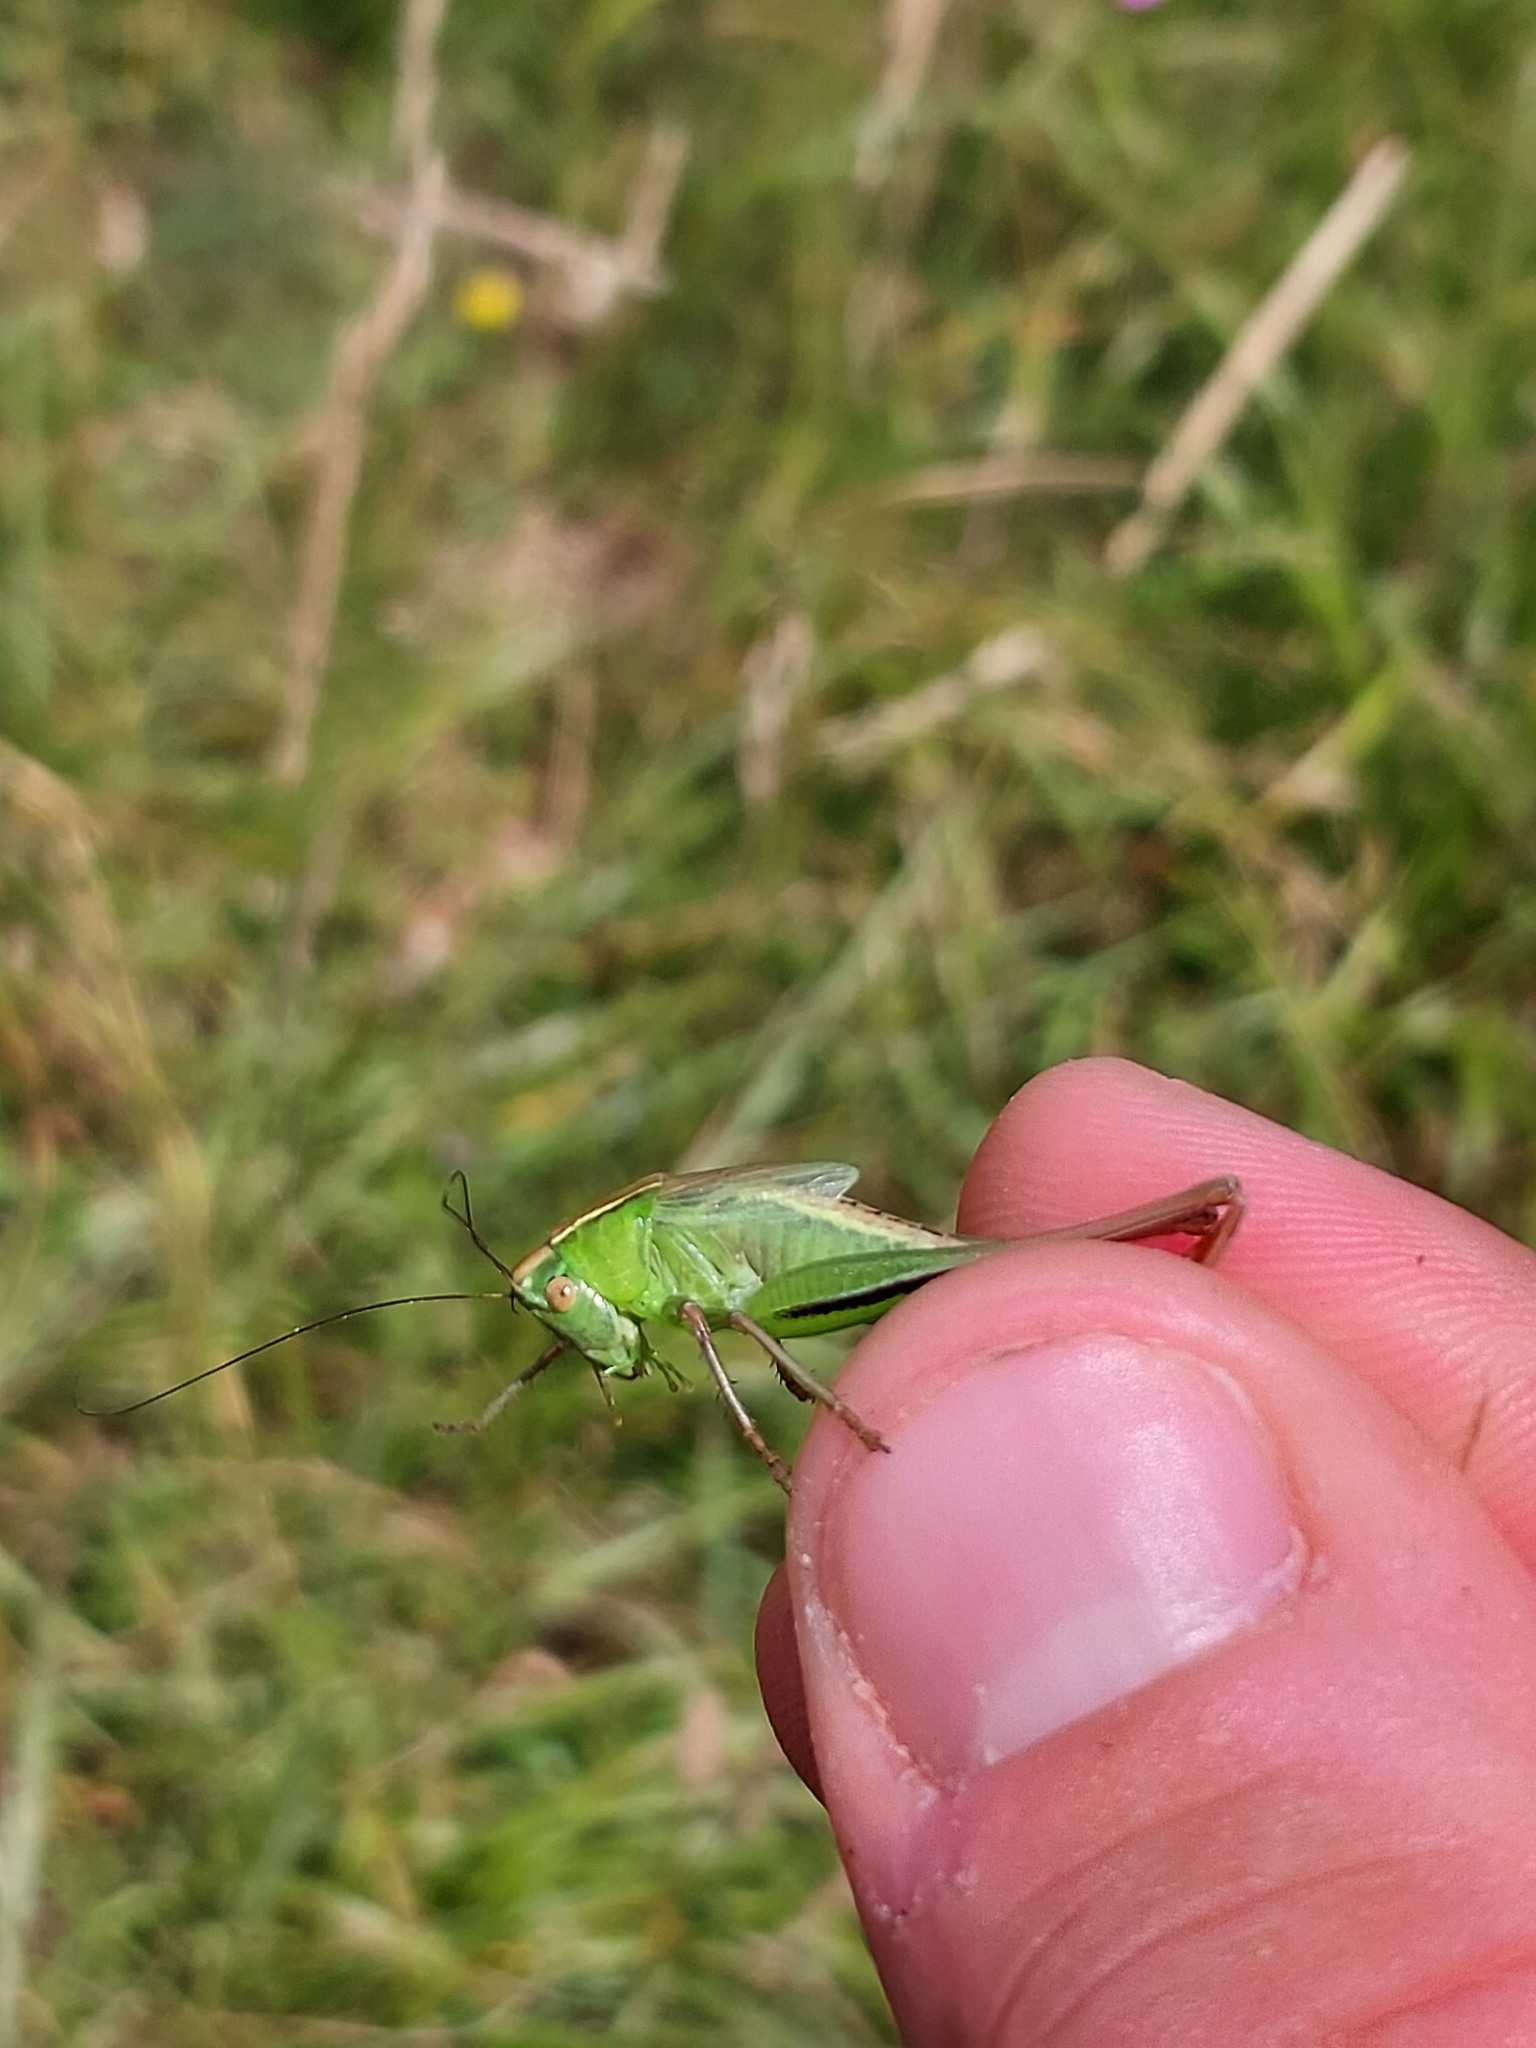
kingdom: Animalia
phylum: Arthropoda
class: Insecta
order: Orthoptera
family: Tettigoniidae
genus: Bicolorana
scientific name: Bicolorana bicolor
